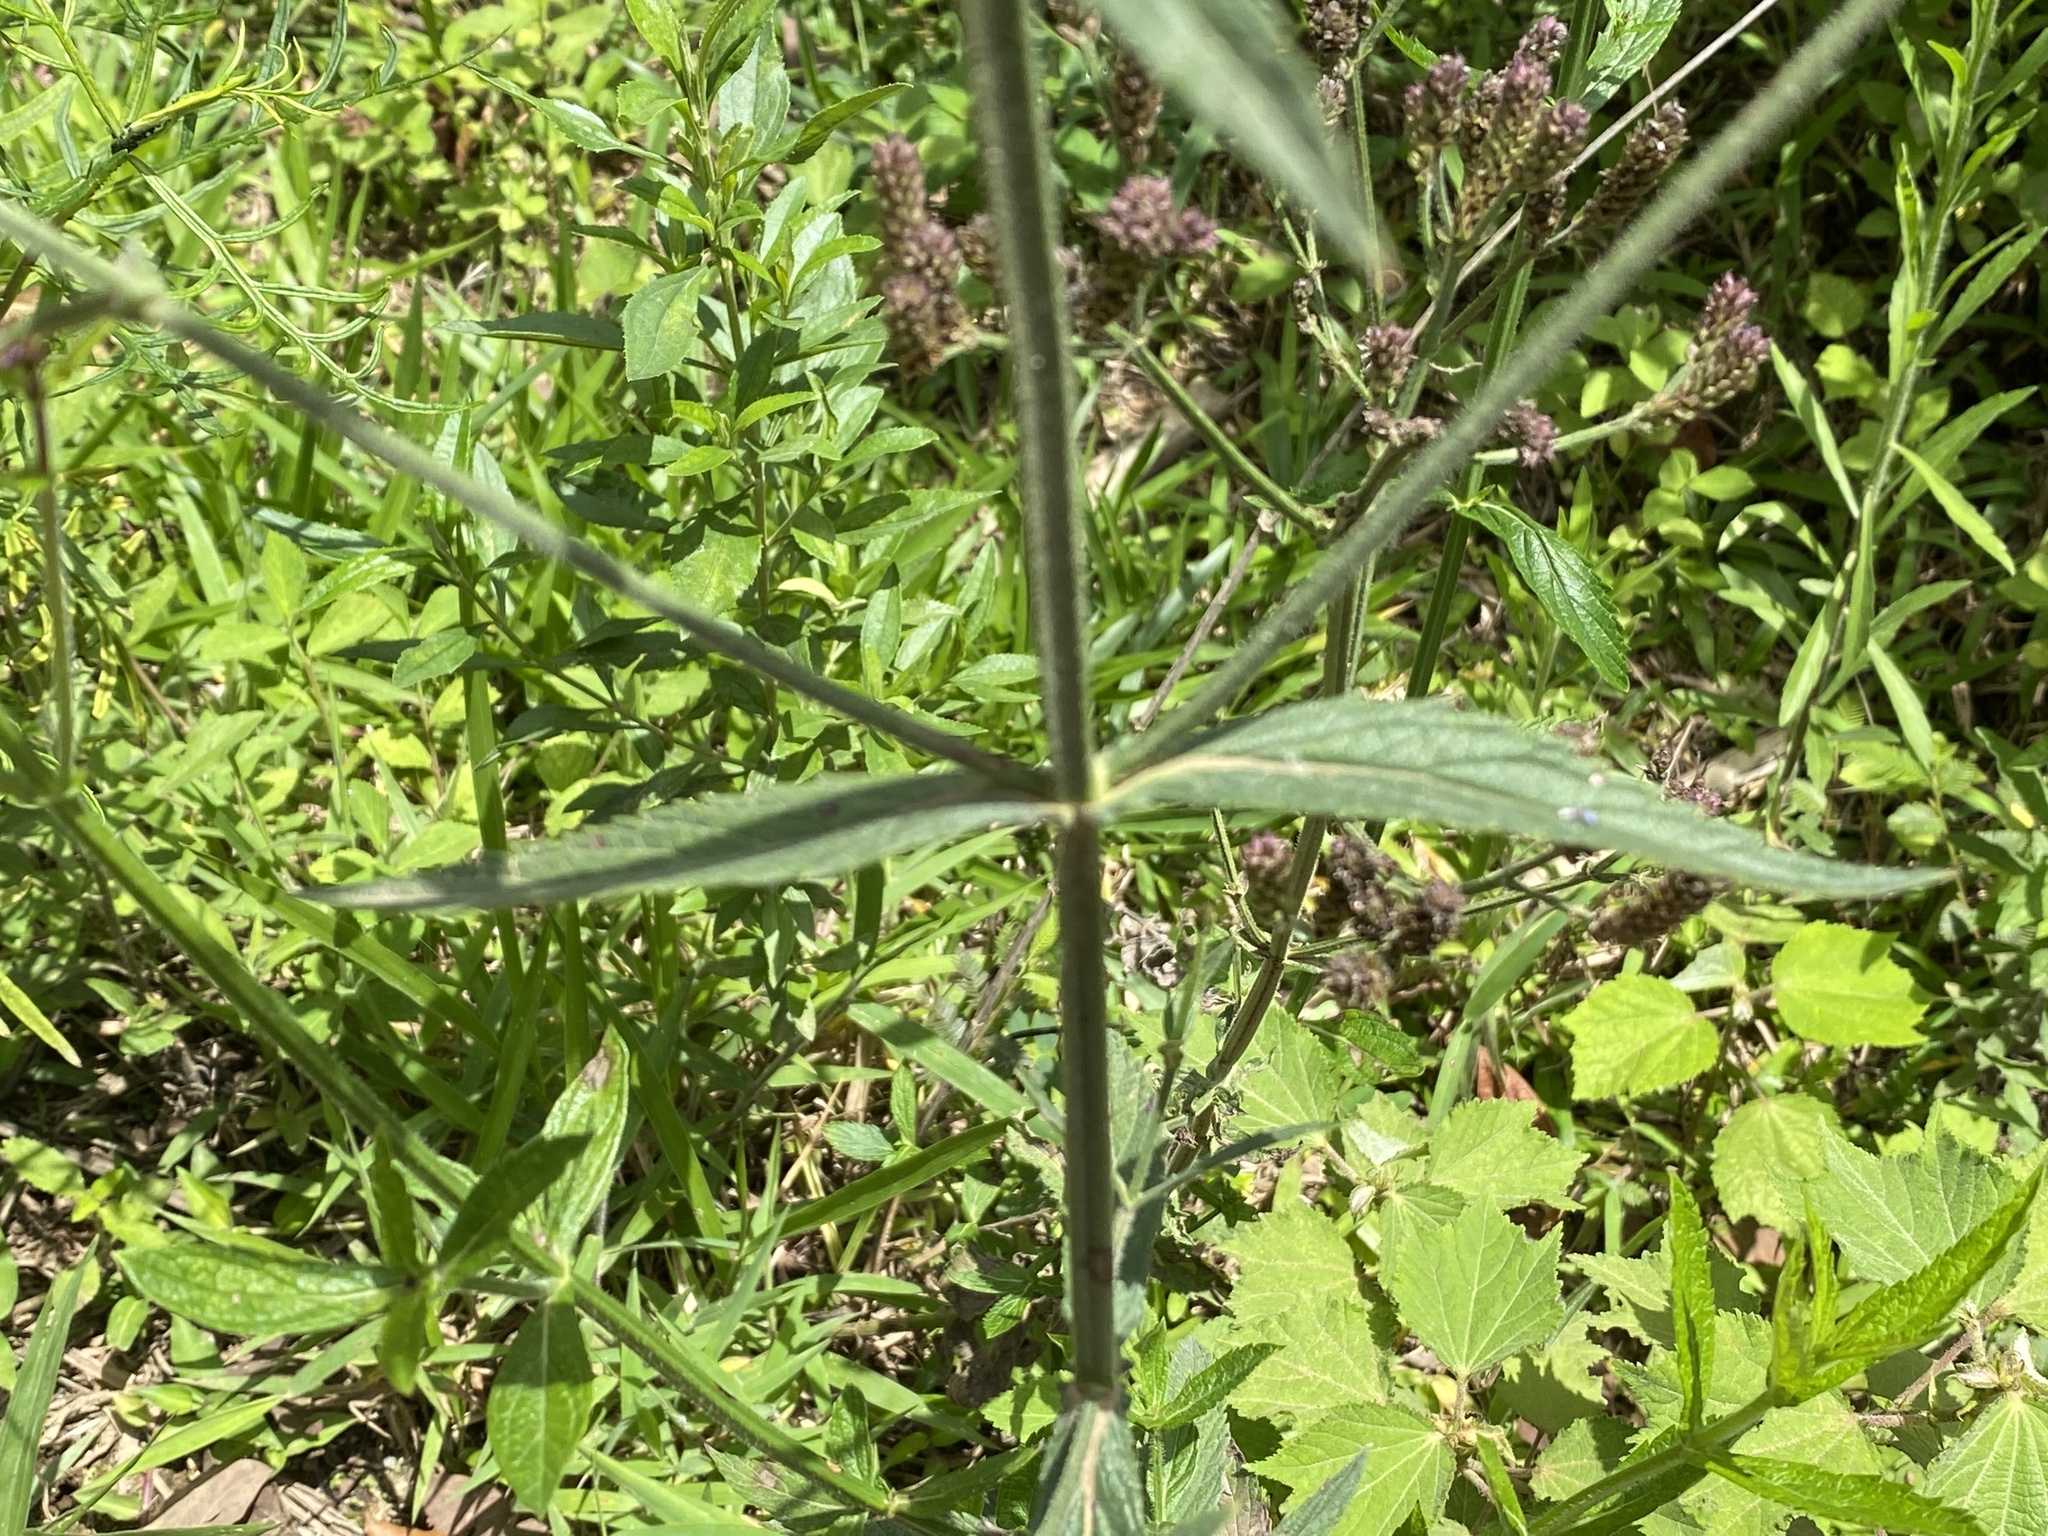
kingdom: Plantae
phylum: Tracheophyta
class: Magnoliopsida
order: Lamiales
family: Verbenaceae
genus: Verbena
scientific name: Verbena bonariensis
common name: Purpletop vervain
